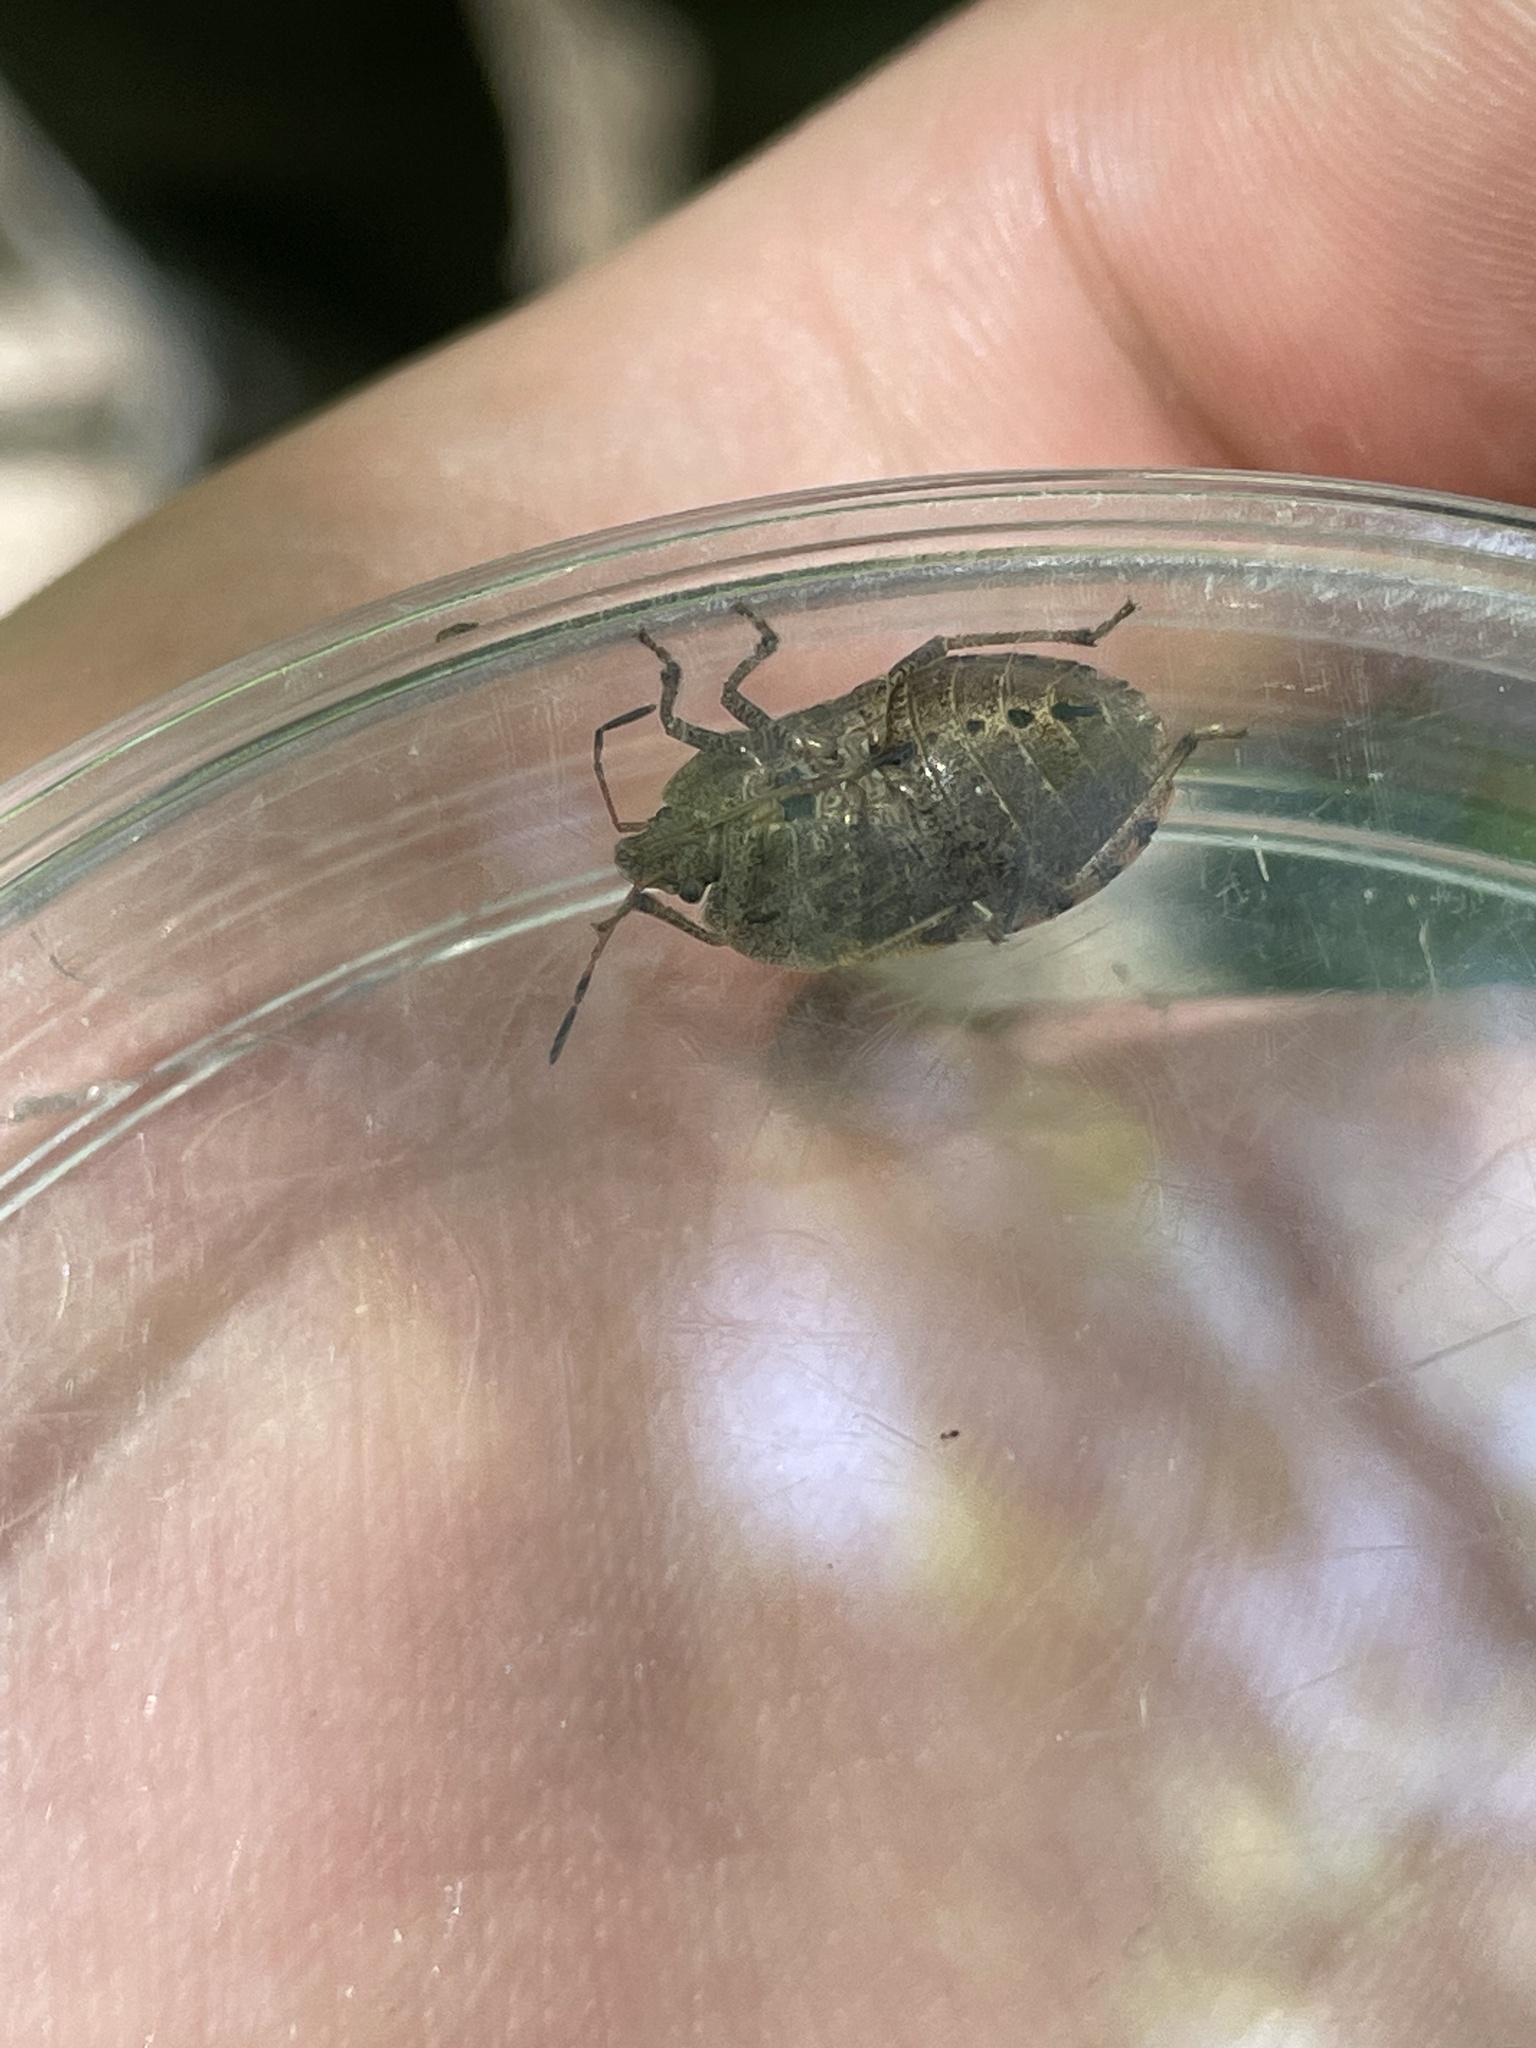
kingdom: Animalia
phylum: Arthropoda
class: Insecta
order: Hemiptera
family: Pentatomidae
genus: Menecles
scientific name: Menecles insertus
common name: Elf shoe stink bug
